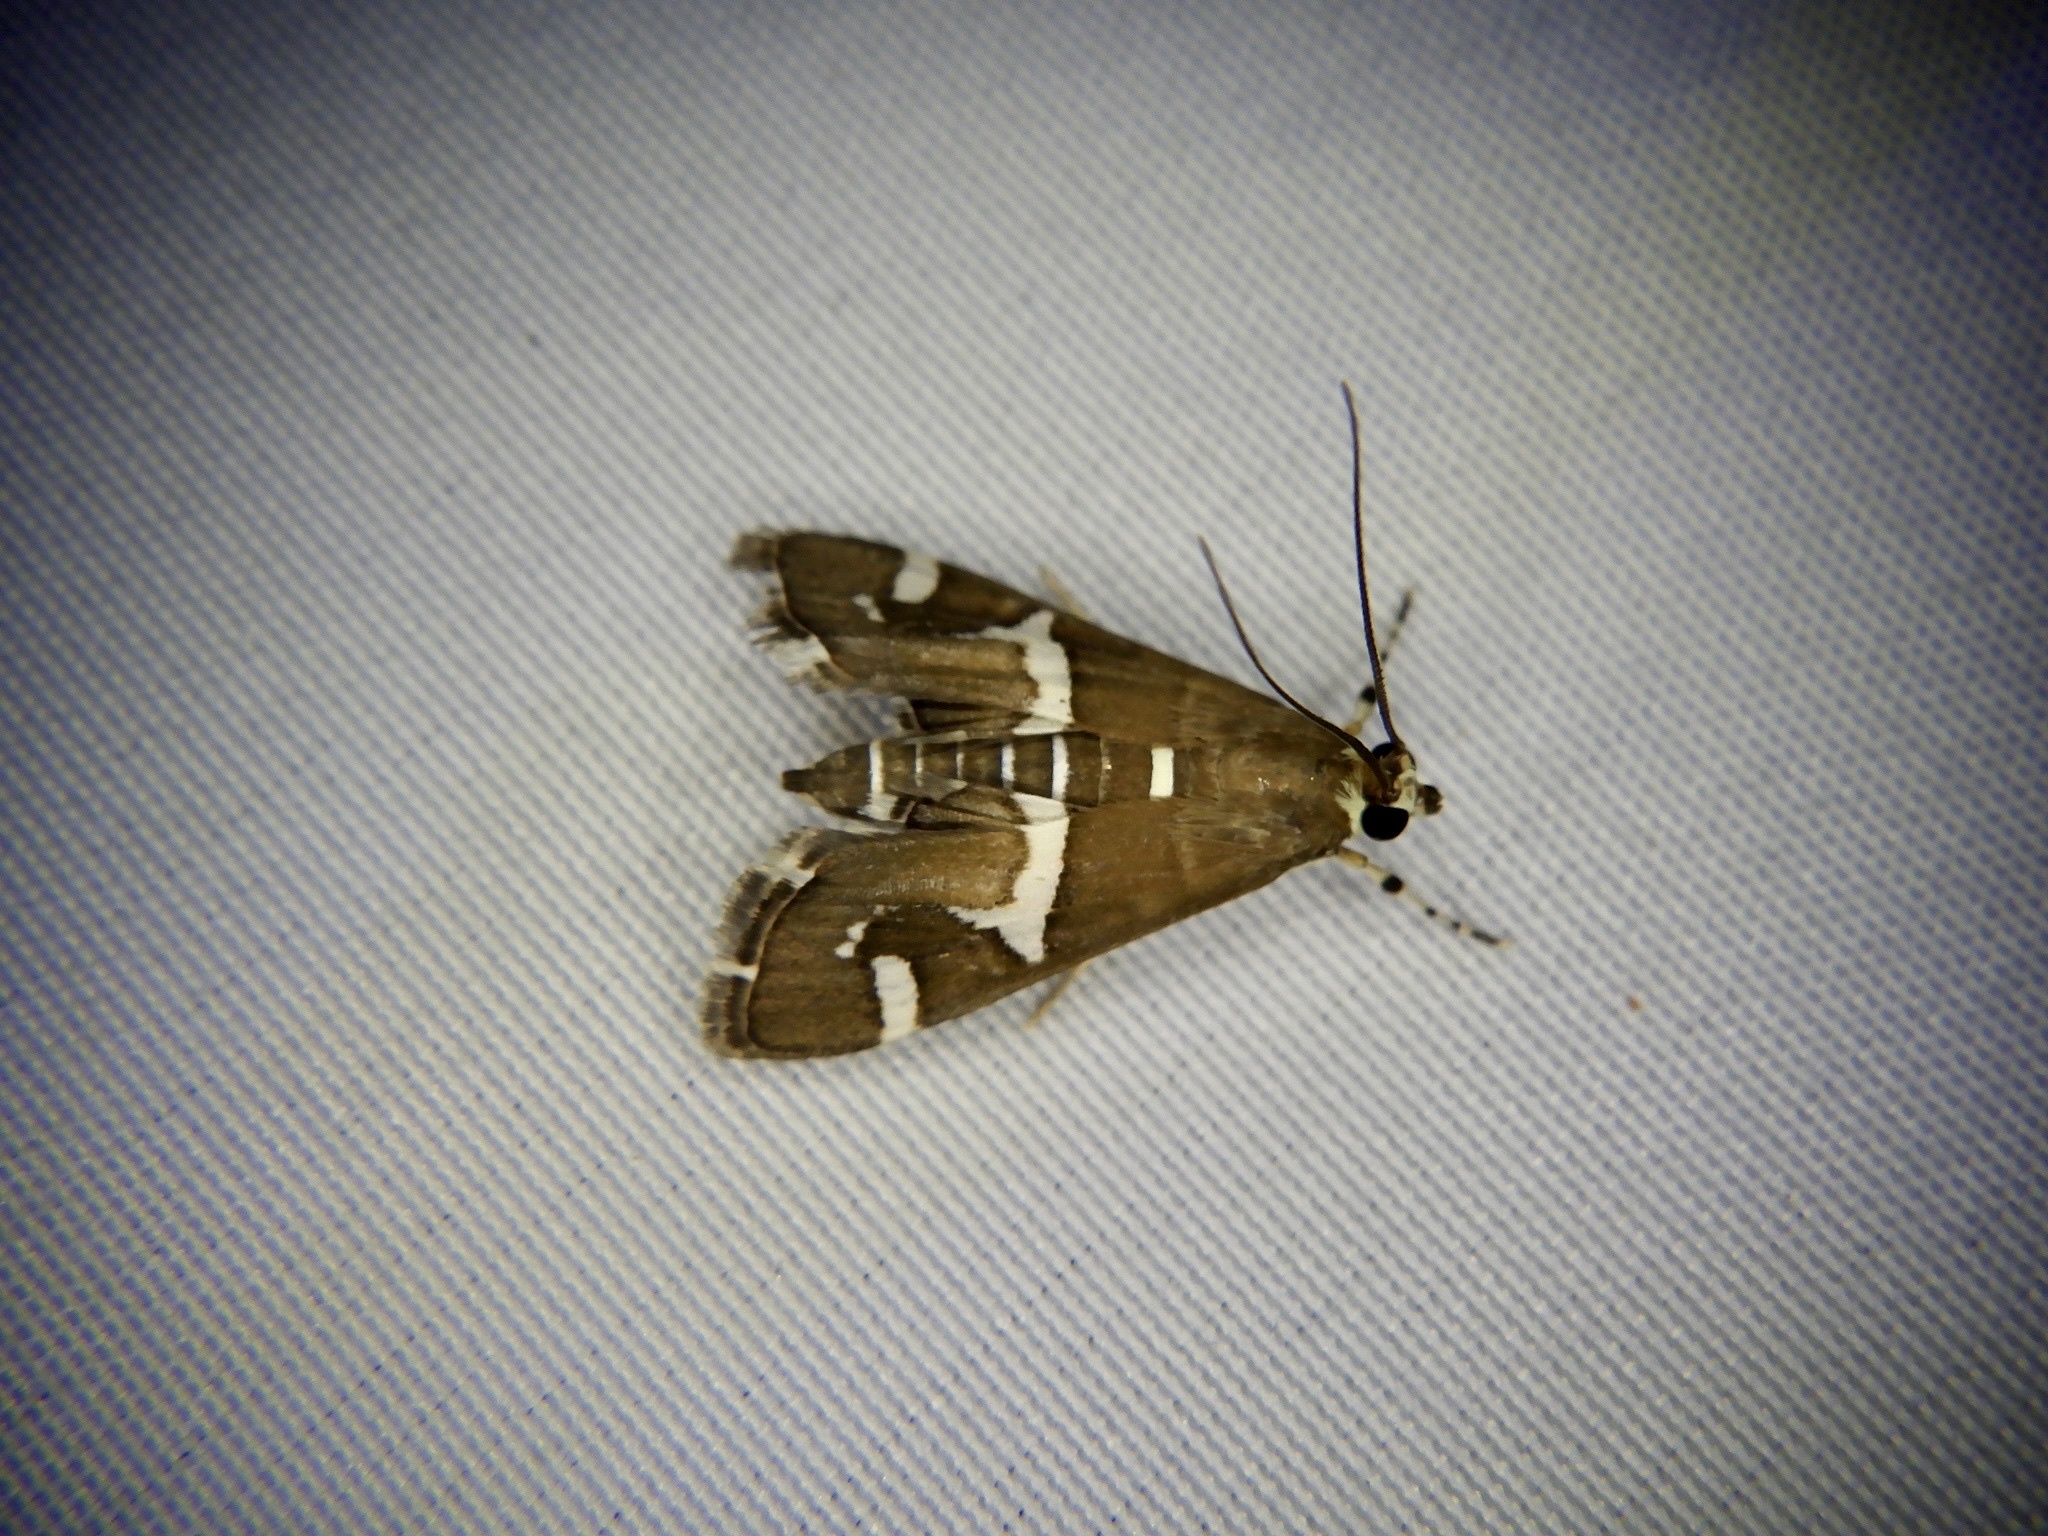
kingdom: Animalia
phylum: Arthropoda
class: Insecta
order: Lepidoptera
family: Crambidae
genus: Spoladea
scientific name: Spoladea recurvalis
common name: Beet webworm moth
